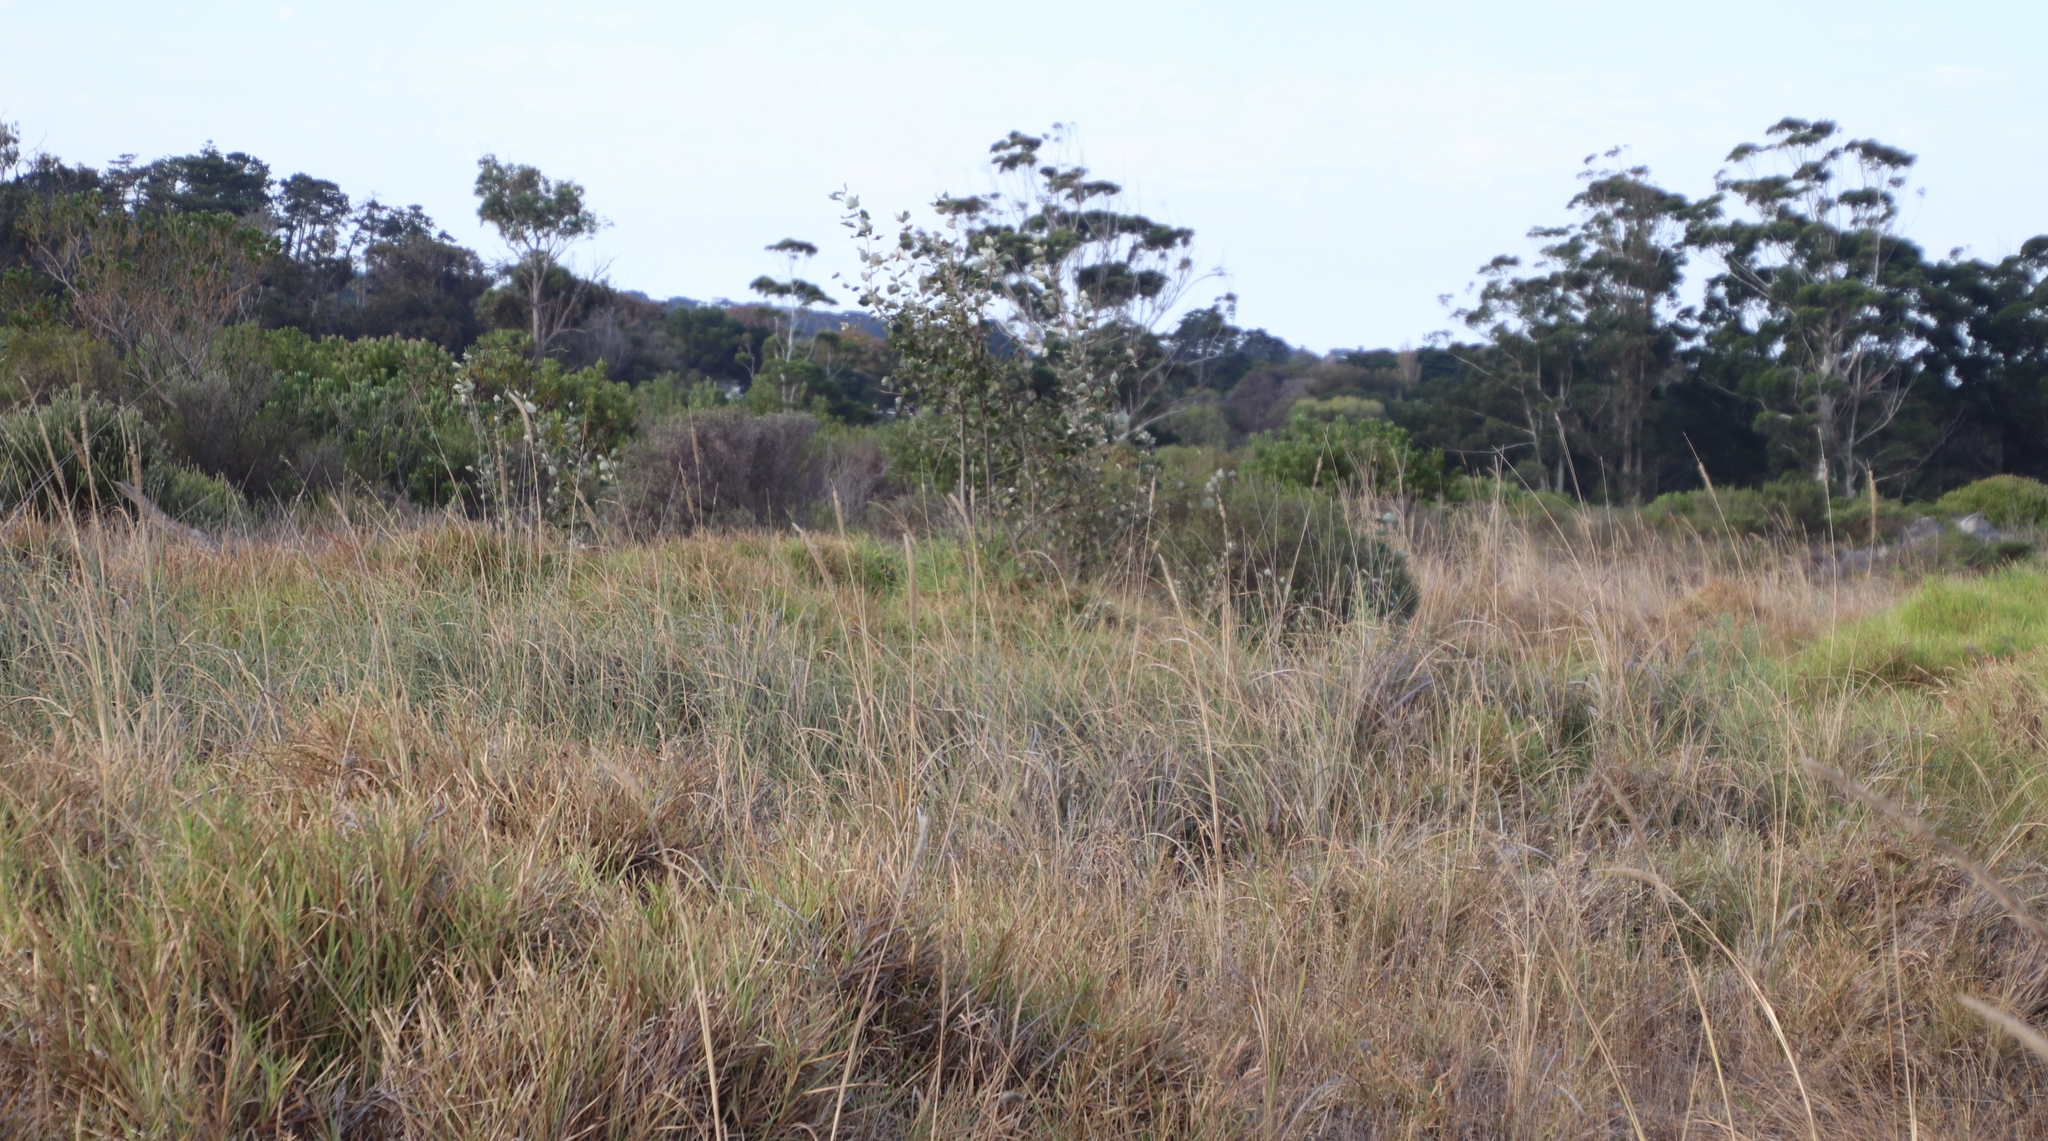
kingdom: Plantae
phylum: Tracheophyta
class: Liliopsida
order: Poales
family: Poaceae
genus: Cenchrus
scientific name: Cenchrus caudatus
